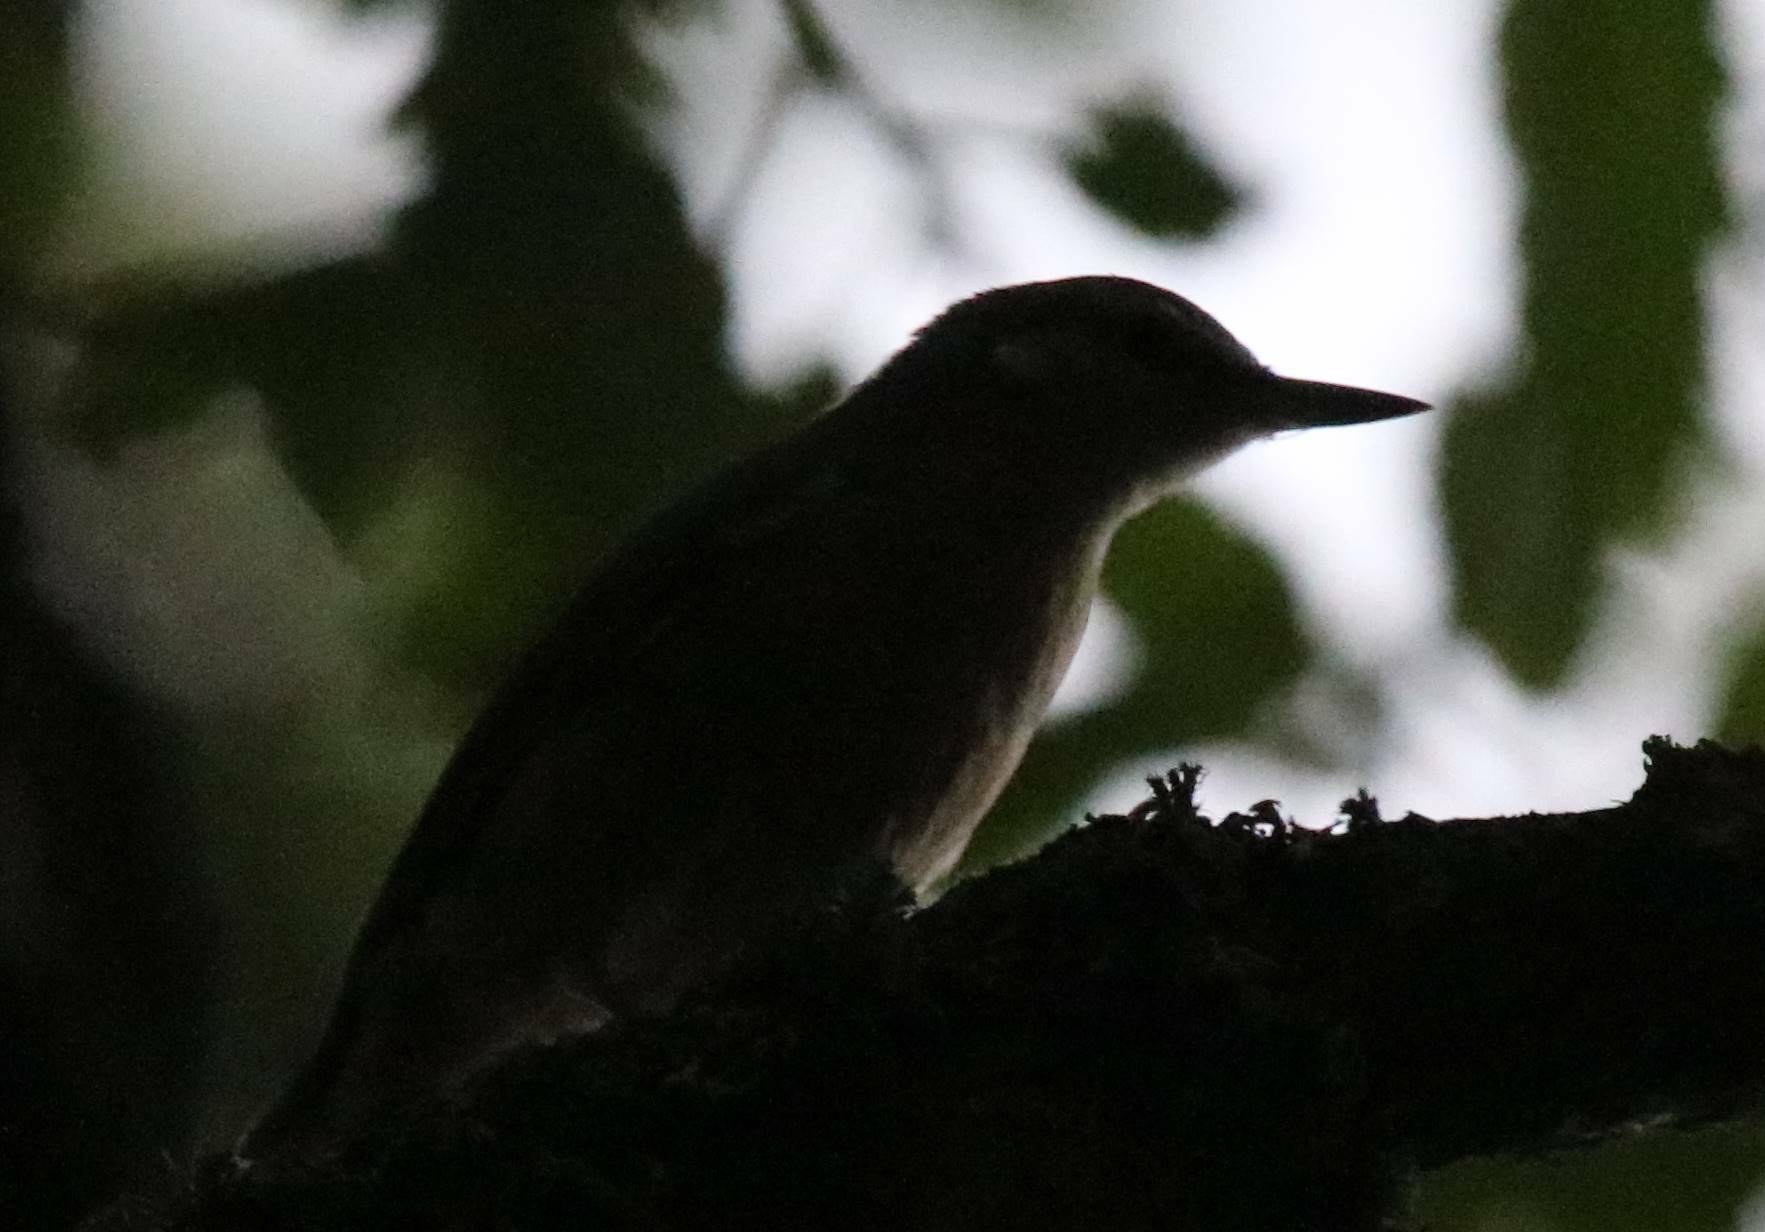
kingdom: Animalia
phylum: Chordata
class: Aves
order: Passeriformes
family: Sittidae
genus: Sitta
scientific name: Sitta ledanti
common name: Algerian nuthatch
